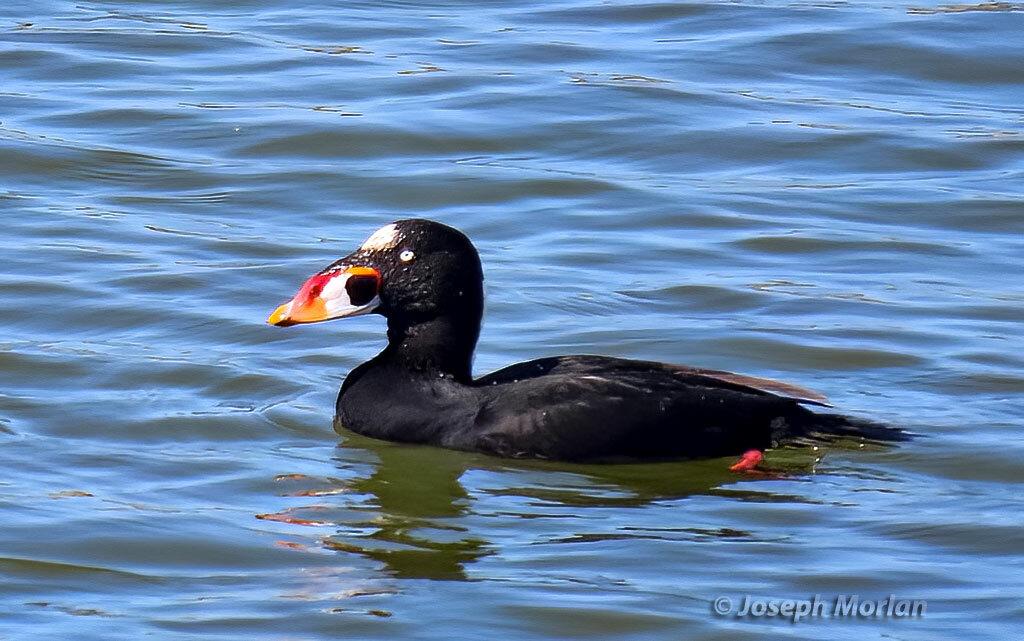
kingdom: Animalia
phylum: Chordata
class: Aves
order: Anseriformes
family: Anatidae
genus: Melanitta
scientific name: Melanitta perspicillata
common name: Surf scoter
